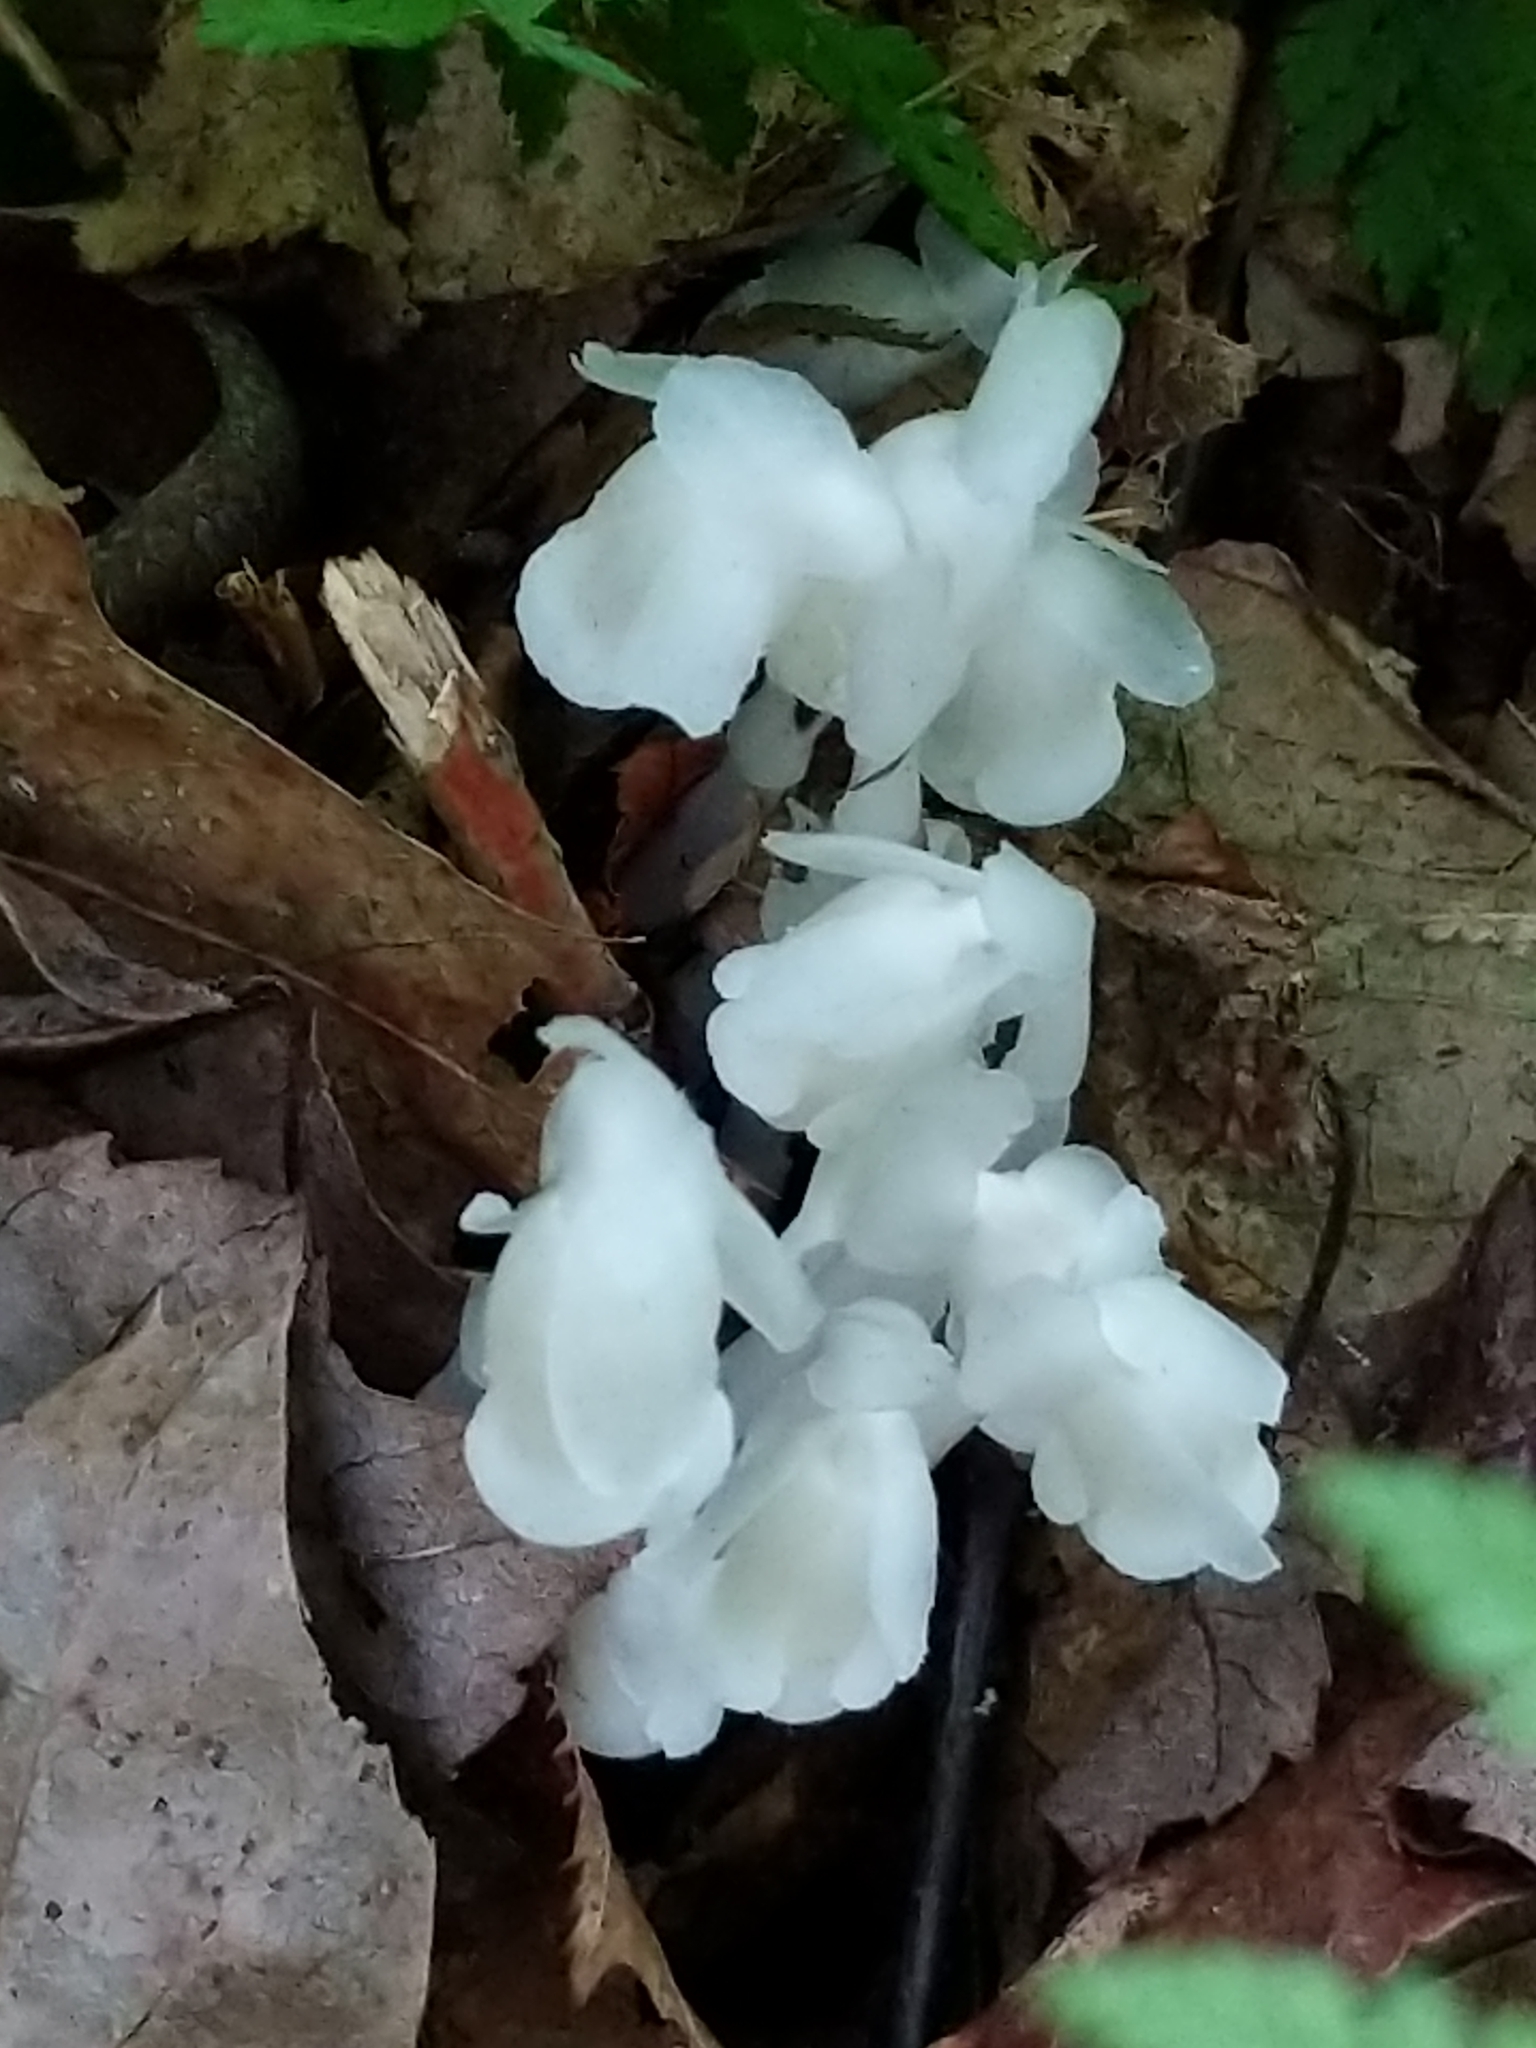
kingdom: Plantae
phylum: Tracheophyta
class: Magnoliopsida
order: Ericales
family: Ericaceae
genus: Monotropa
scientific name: Monotropa uniflora
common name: Convulsion root
